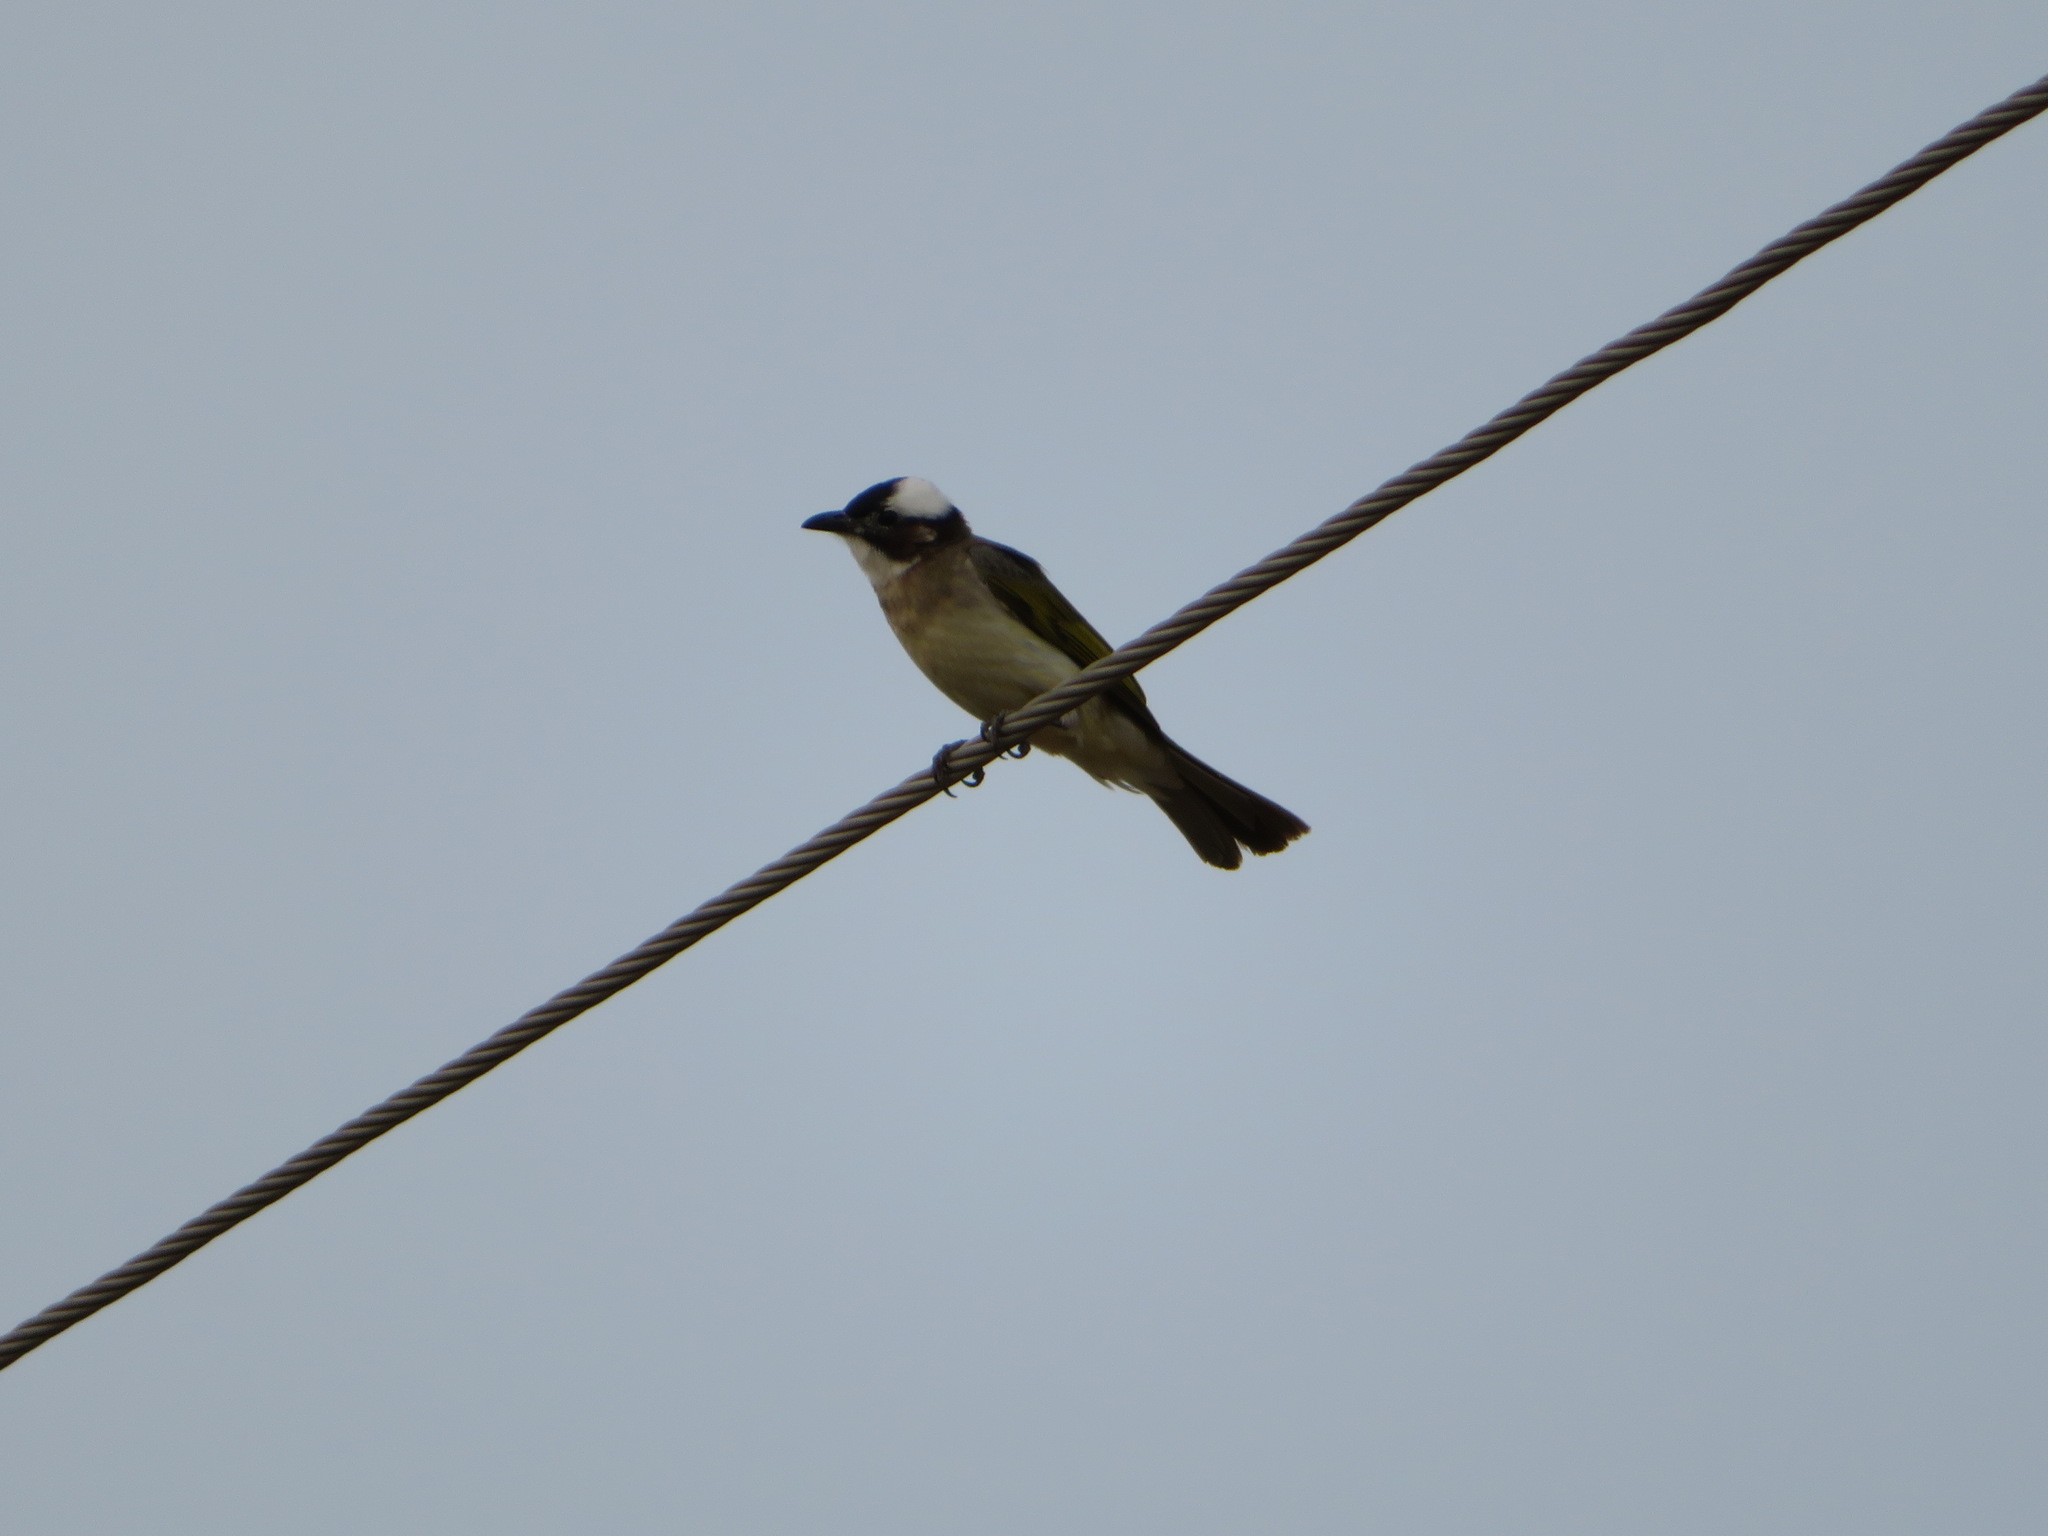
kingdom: Animalia
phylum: Chordata
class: Aves
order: Passeriformes
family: Pycnonotidae
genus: Pycnonotus
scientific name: Pycnonotus sinensis
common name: Light-vented bulbul
